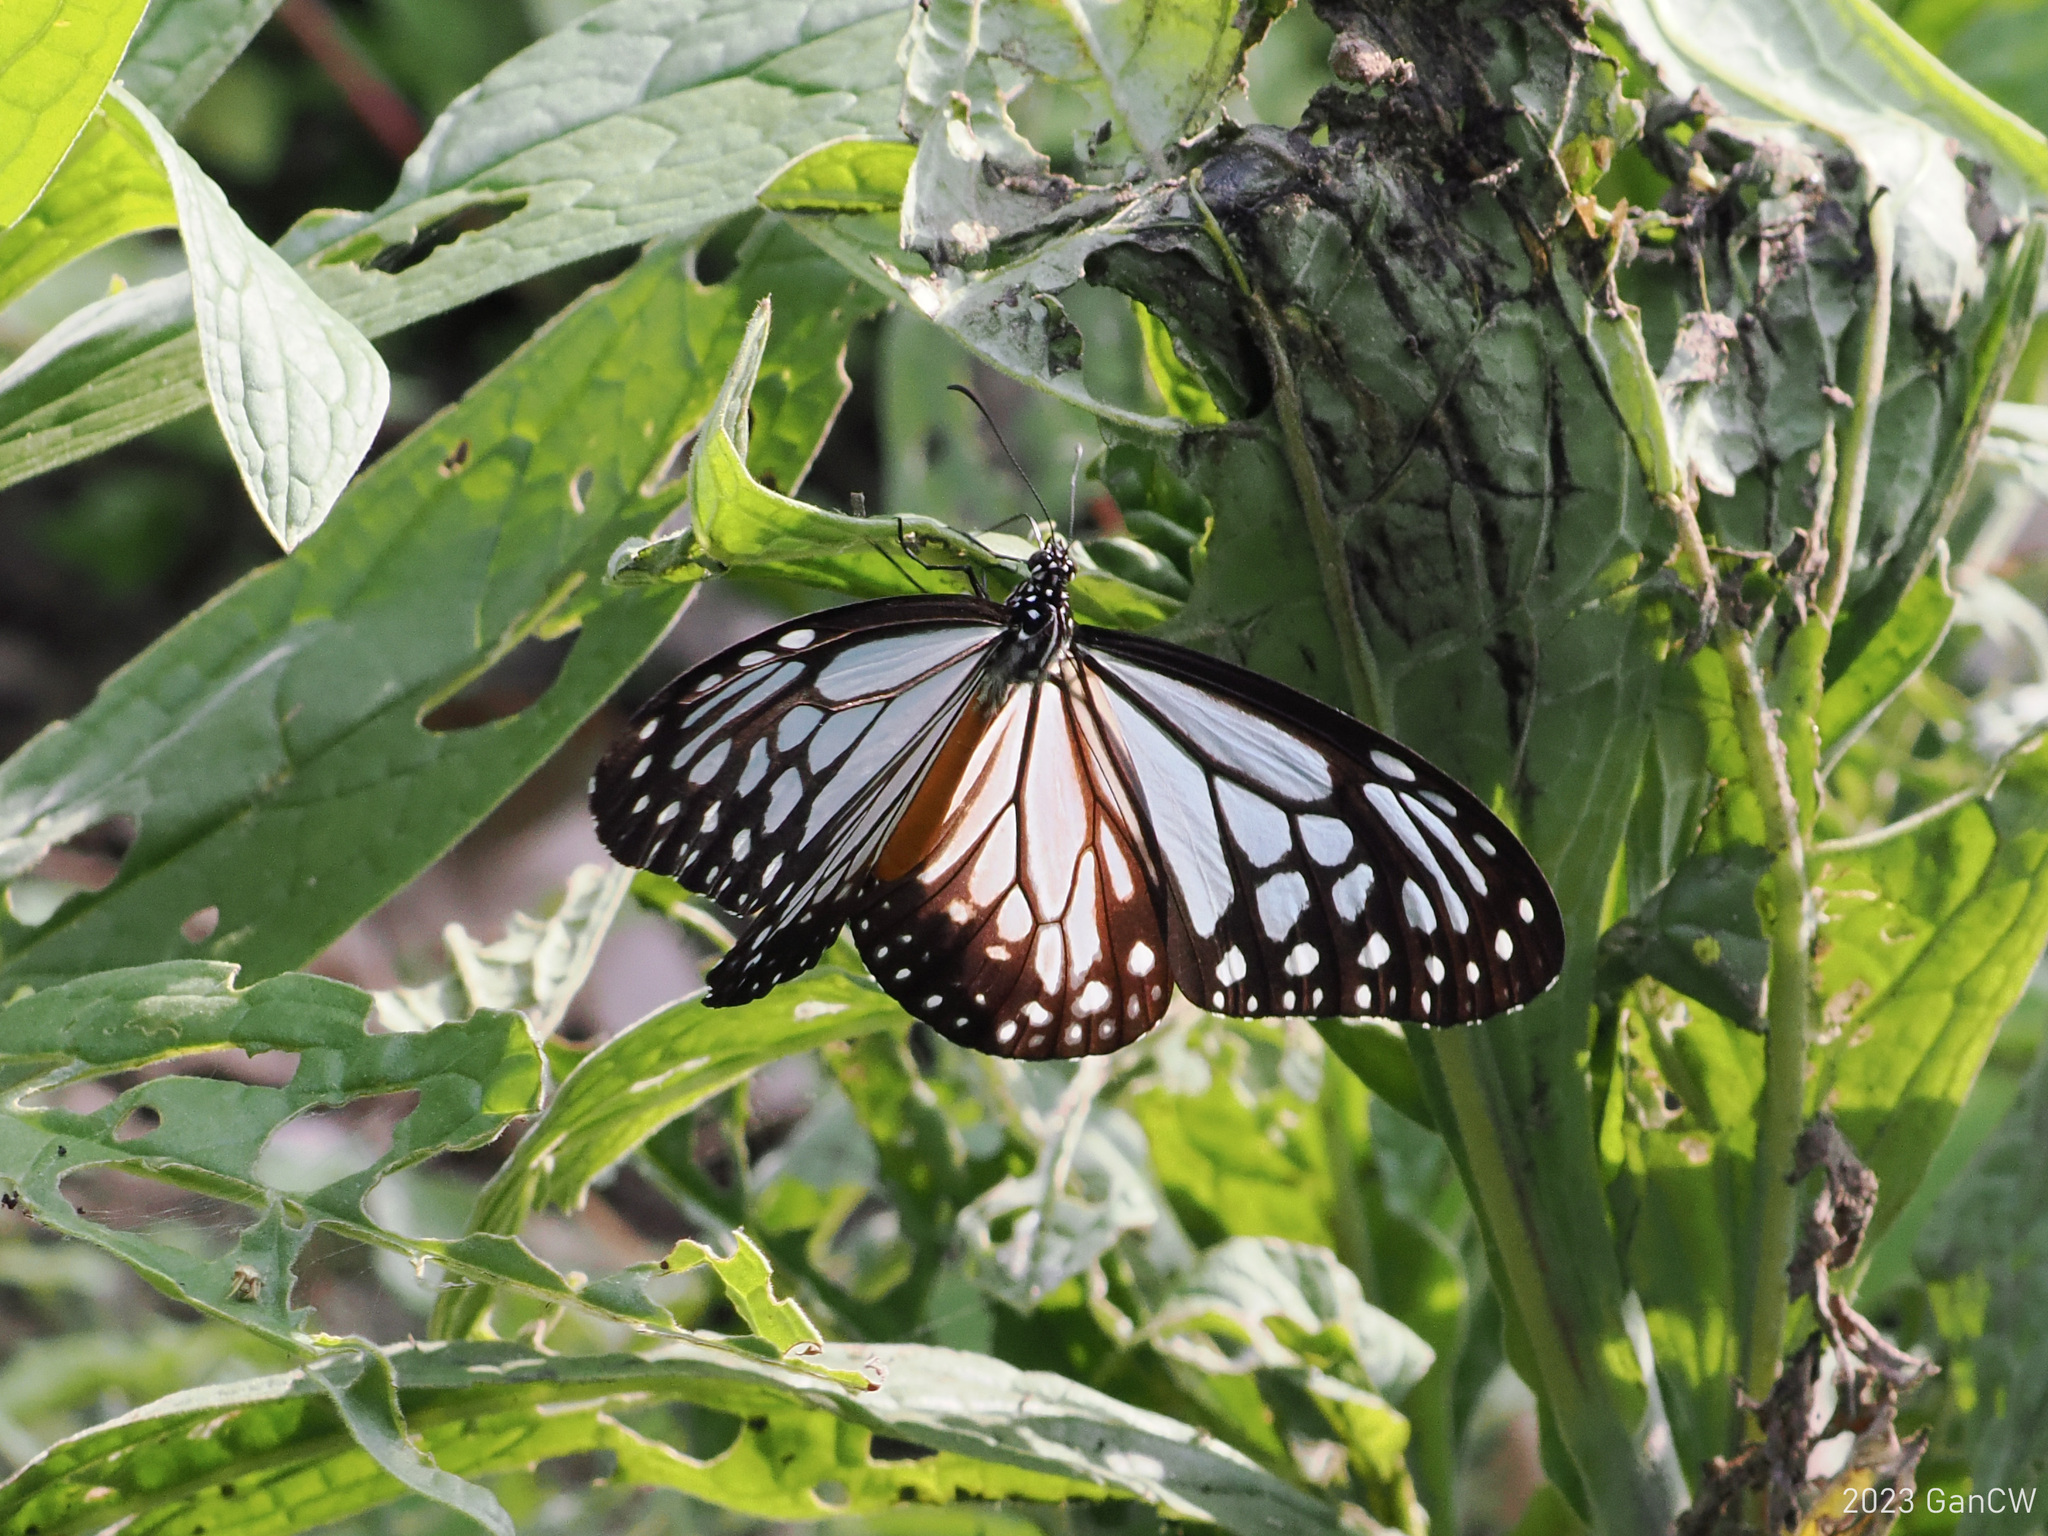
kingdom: Animalia
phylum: Arthropoda
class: Insecta
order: Lepidoptera
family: Nymphalidae
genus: Parantica
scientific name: Parantica melaneus
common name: Chocolate tiger
